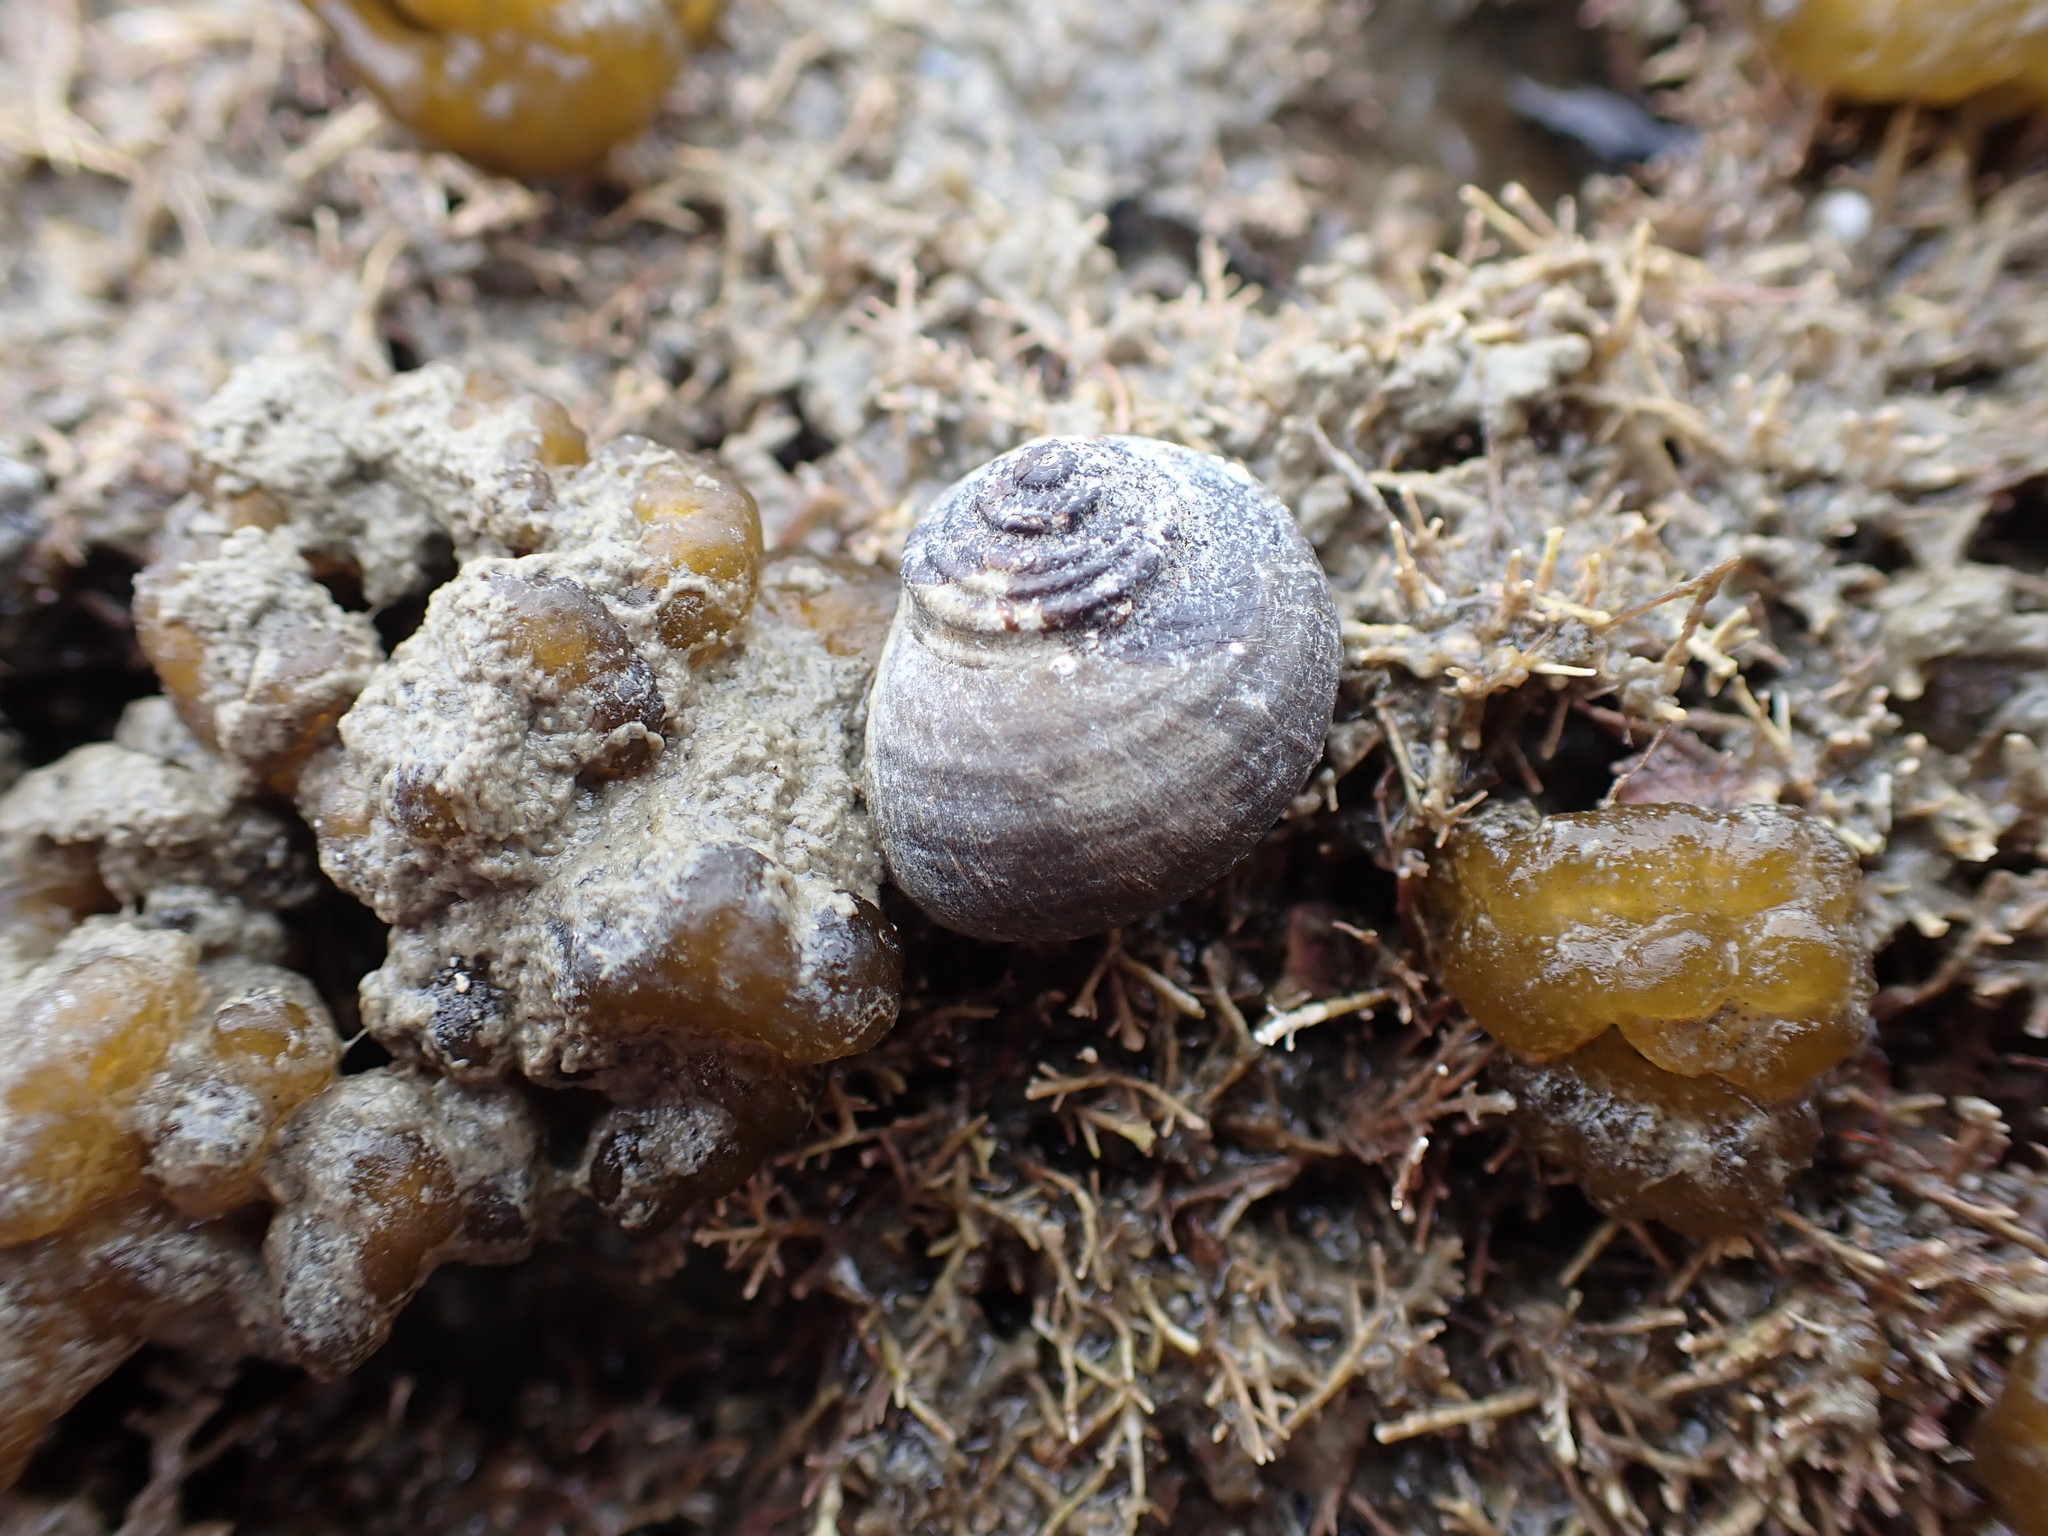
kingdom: Animalia
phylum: Mollusca
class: Gastropoda
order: Trochida
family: Turbinidae
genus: Lunella
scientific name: Lunella smaragda
